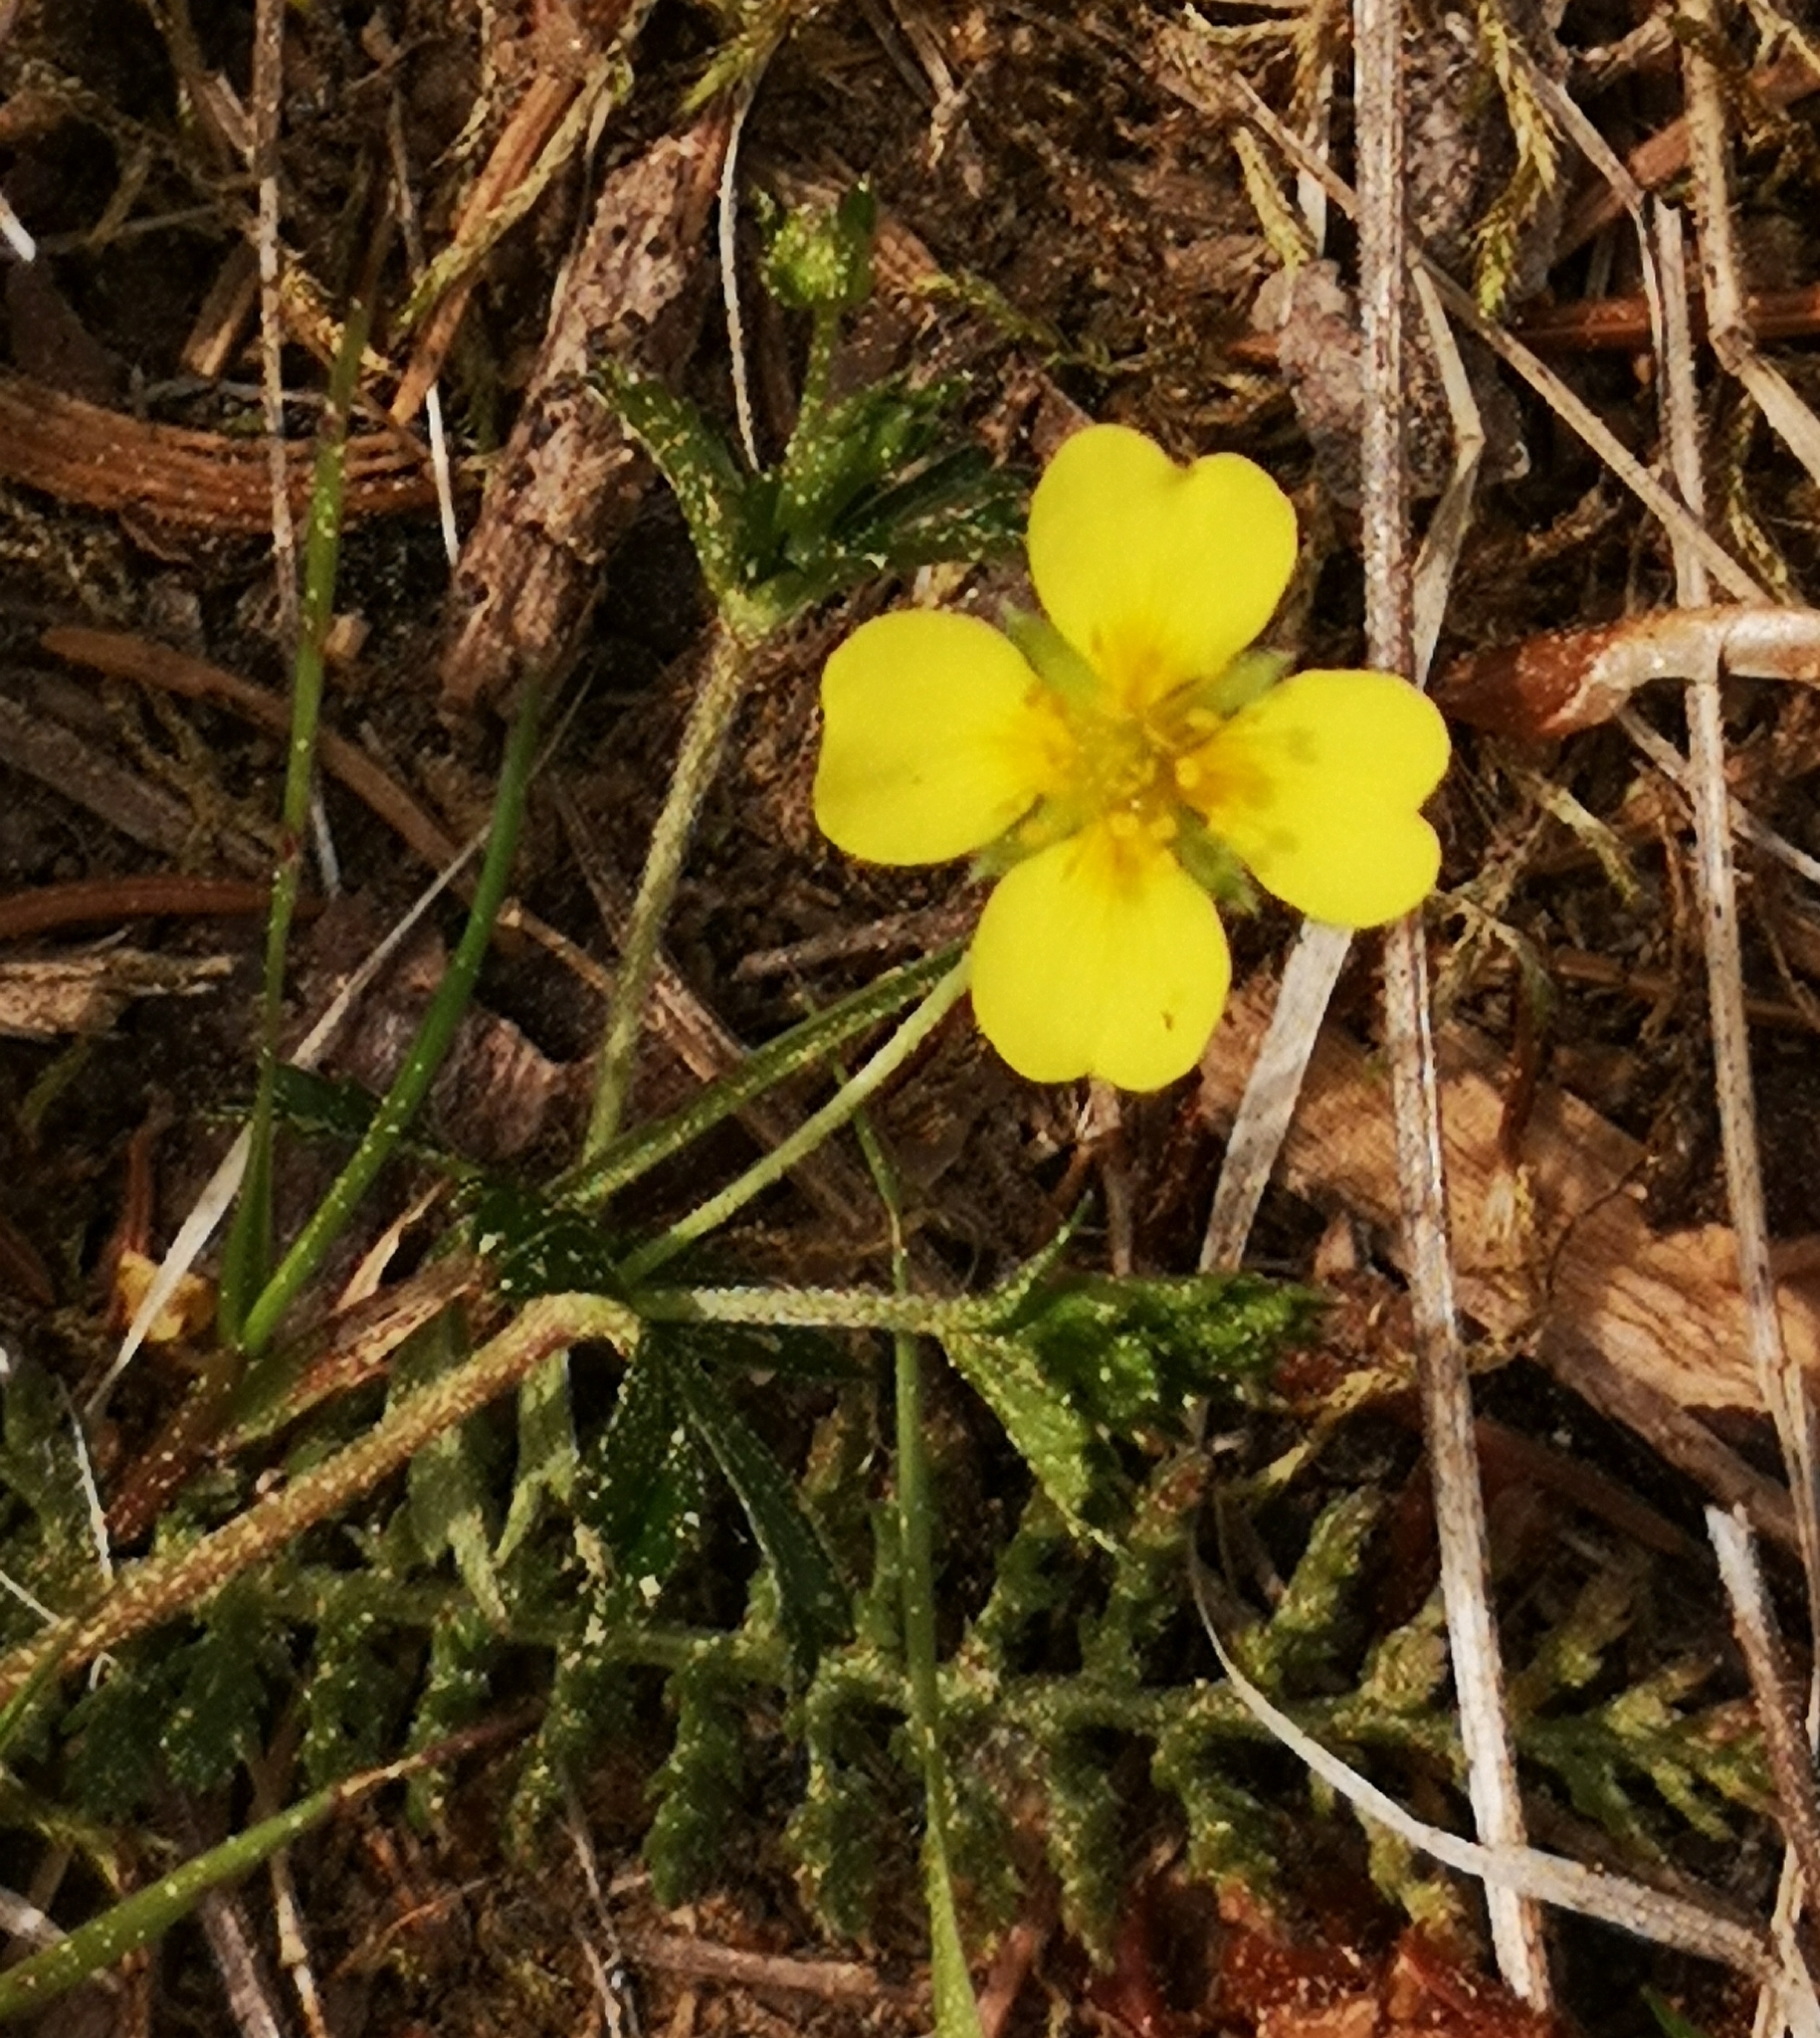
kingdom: Plantae
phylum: Tracheophyta
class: Magnoliopsida
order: Rosales
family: Rosaceae
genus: Potentilla
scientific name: Potentilla erecta
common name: Tormentil
